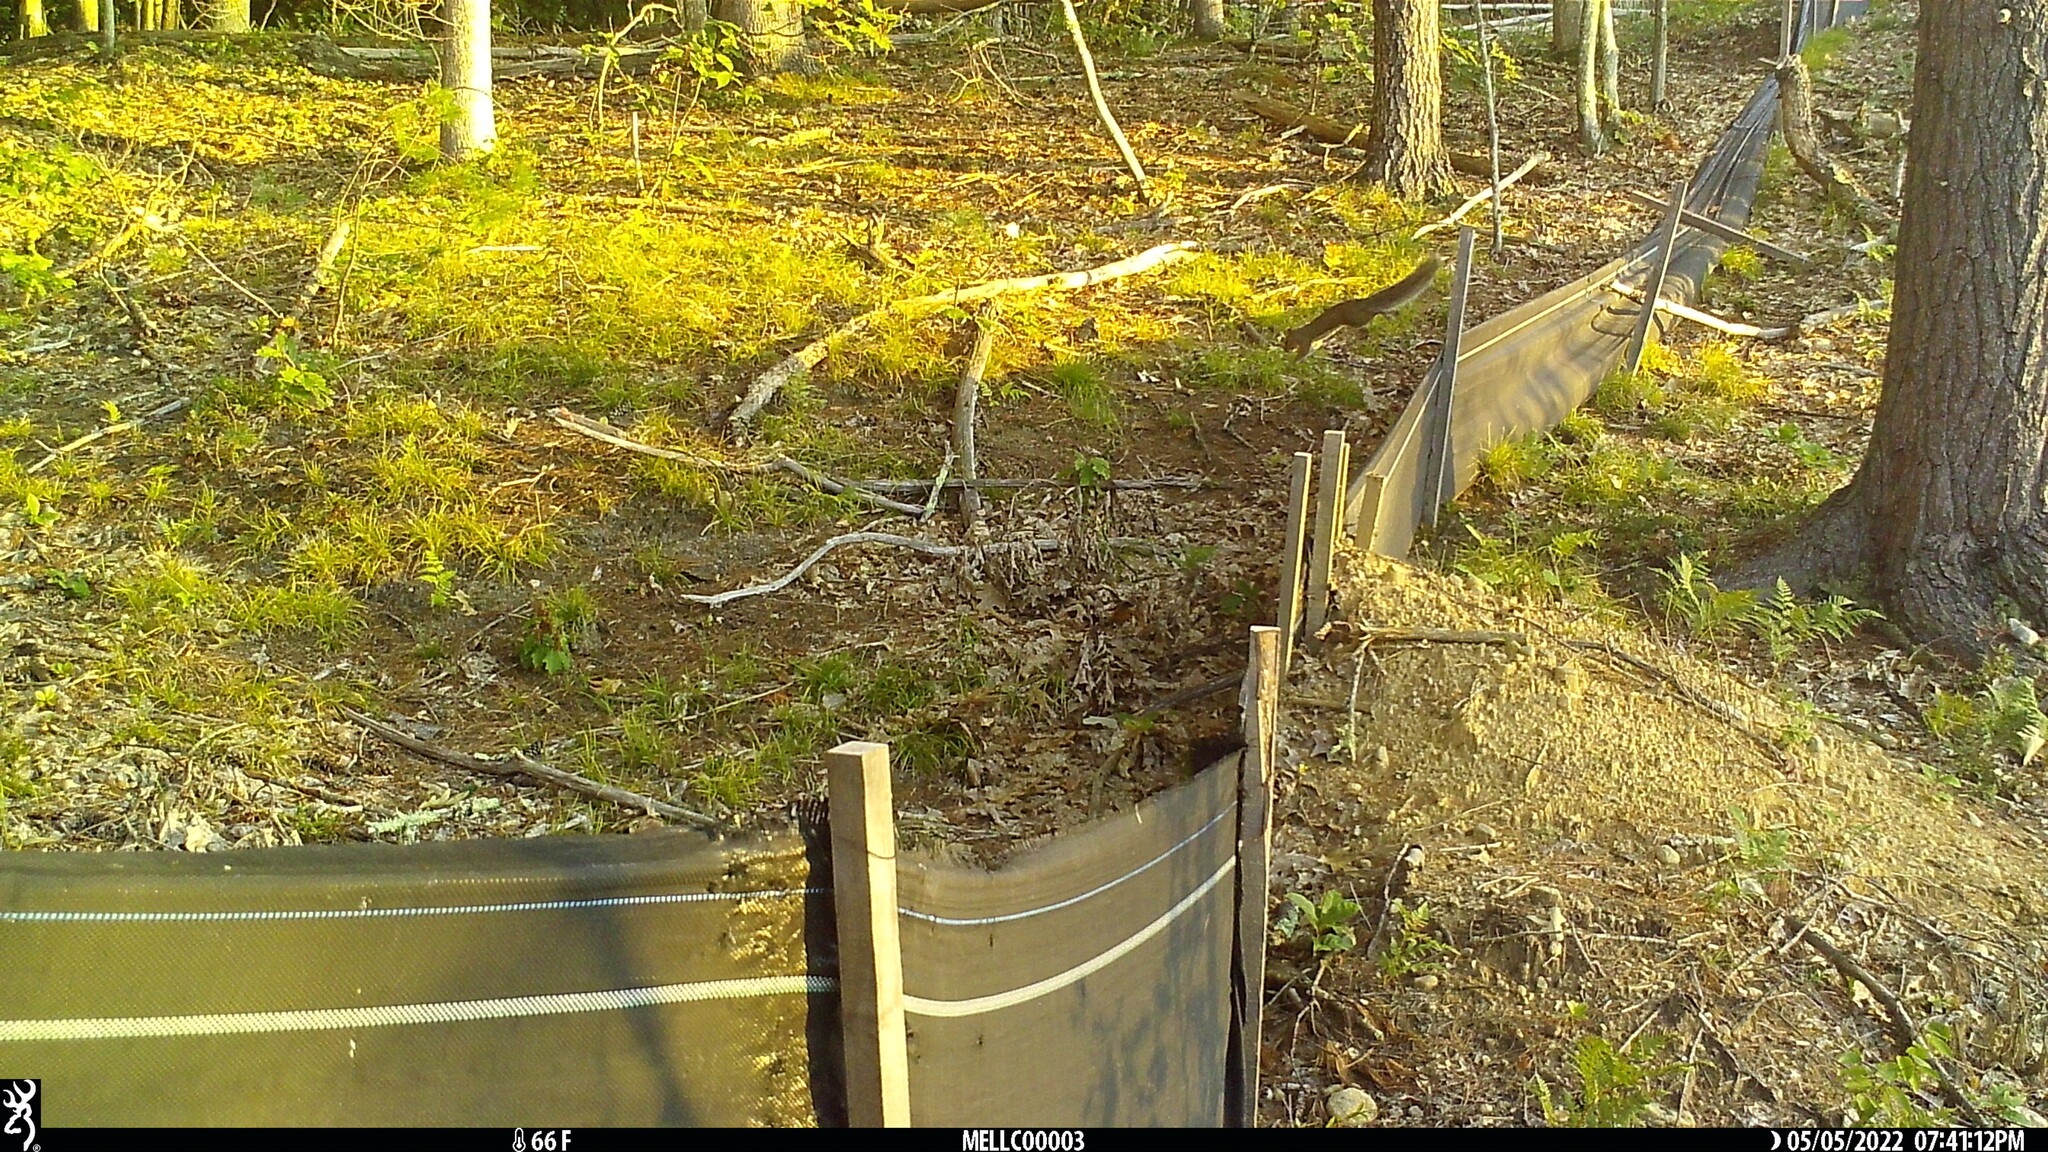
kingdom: Animalia
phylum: Chordata
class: Mammalia
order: Rodentia
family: Sciuridae
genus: Sciurus
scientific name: Sciurus carolinensis
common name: Eastern gray squirrel
